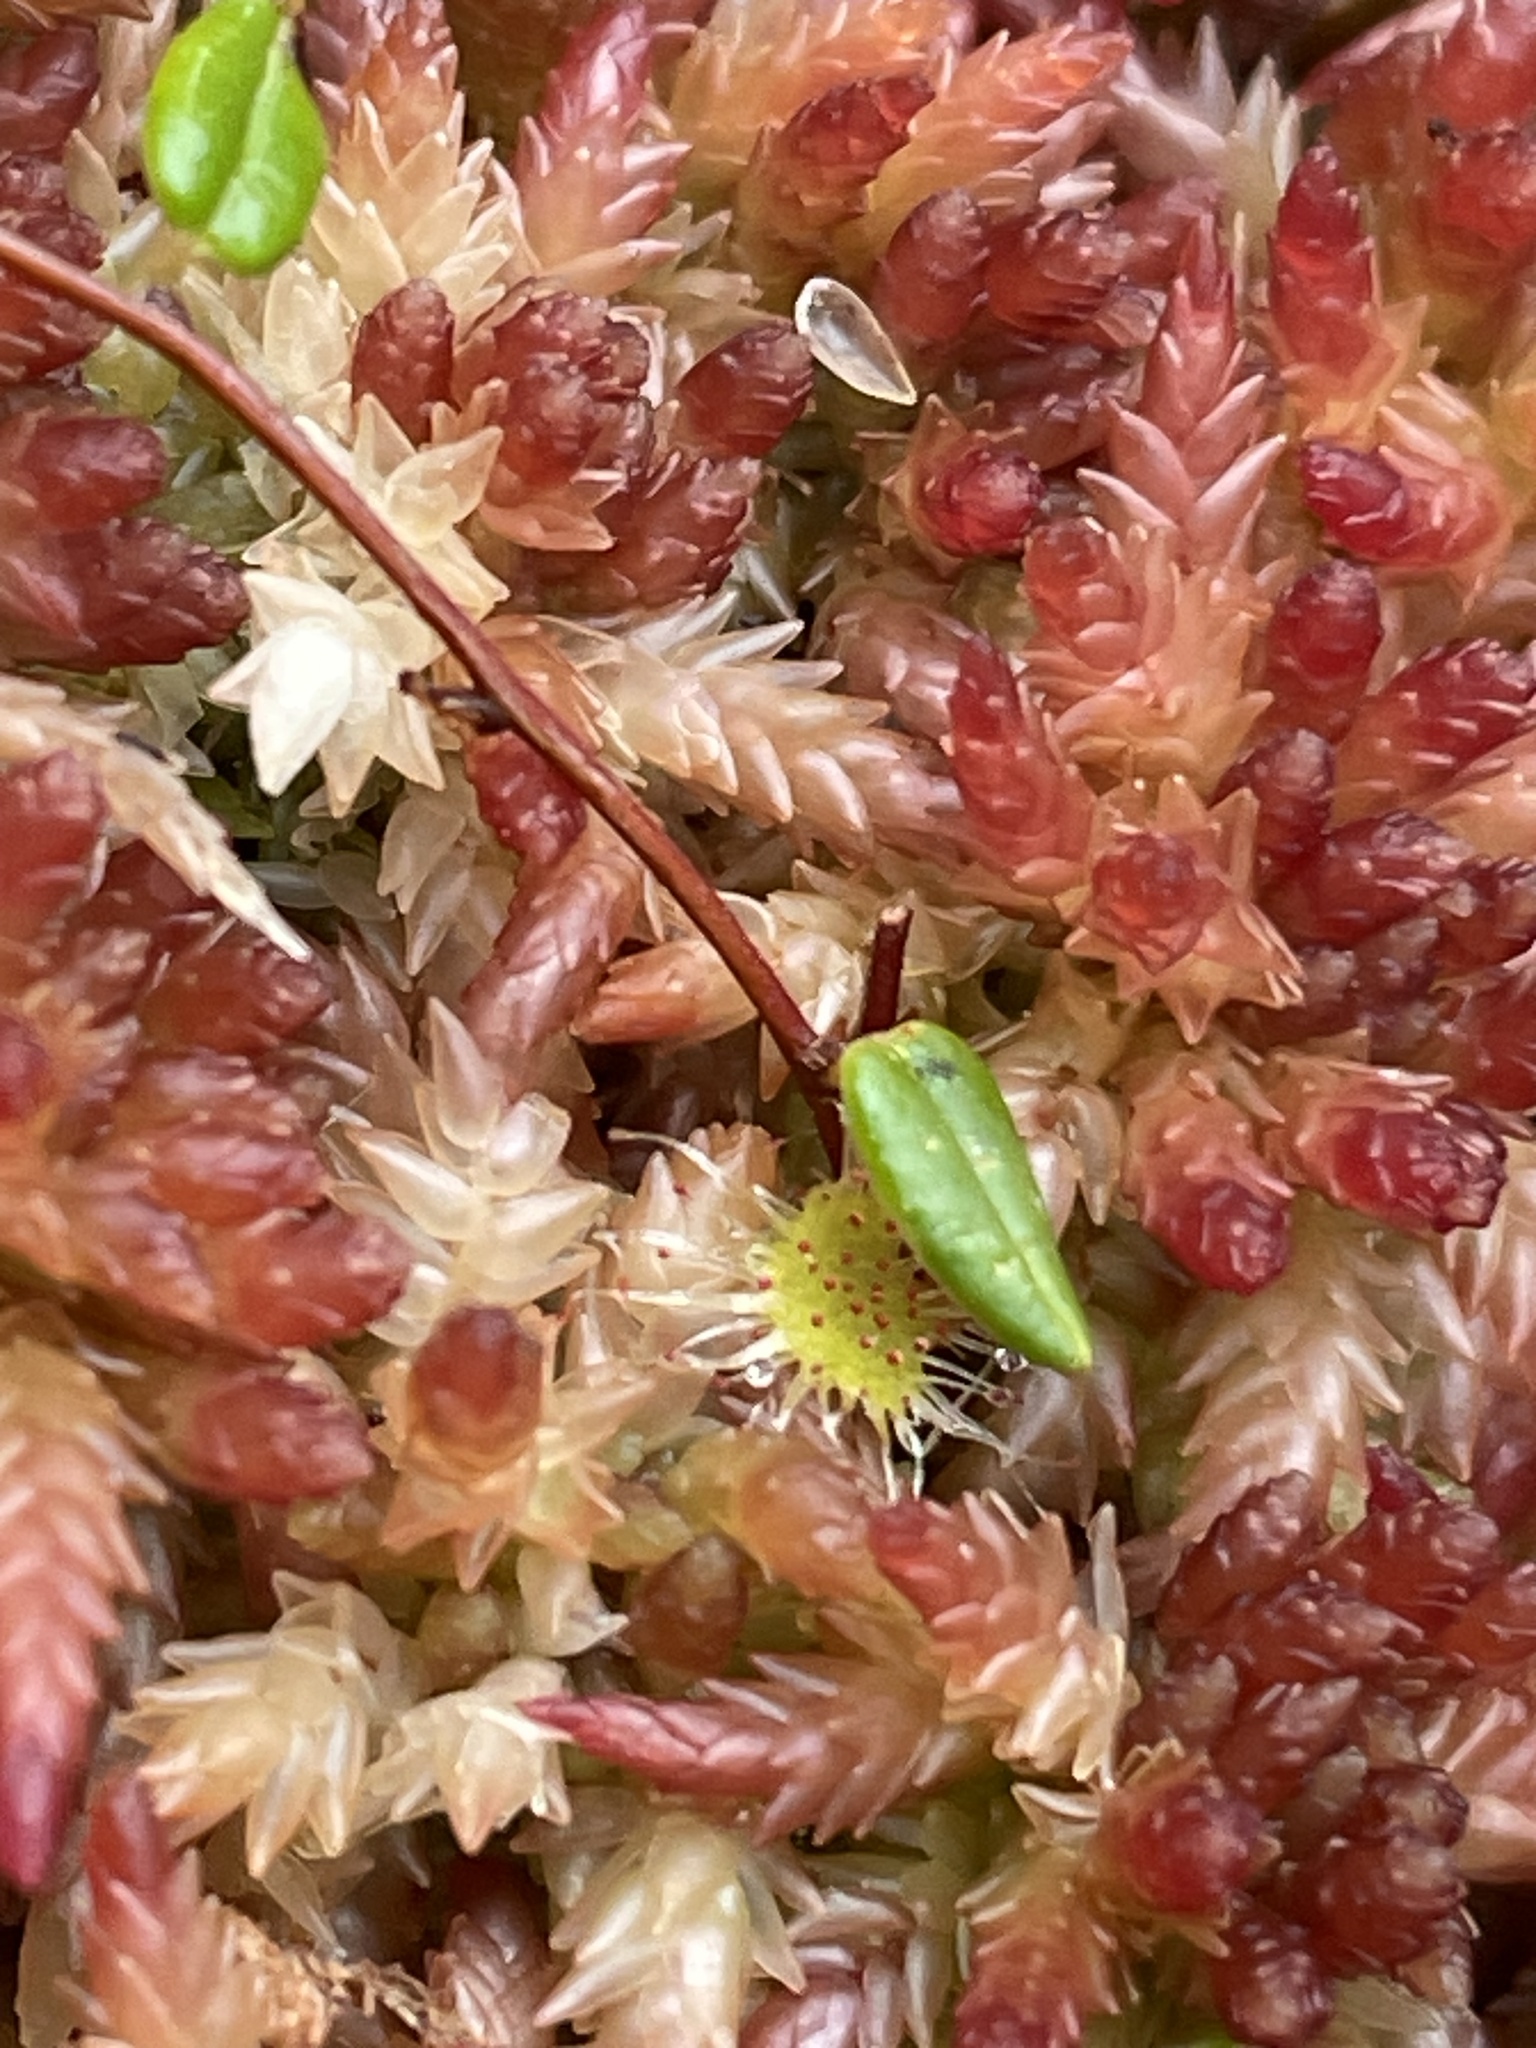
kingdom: Plantae
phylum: Tracheophyta
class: Magnoliopsida
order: Caryophyllales
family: Droseraceae
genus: Drosera
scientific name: Drosera rotundifolia
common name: Round-leaved sundew
